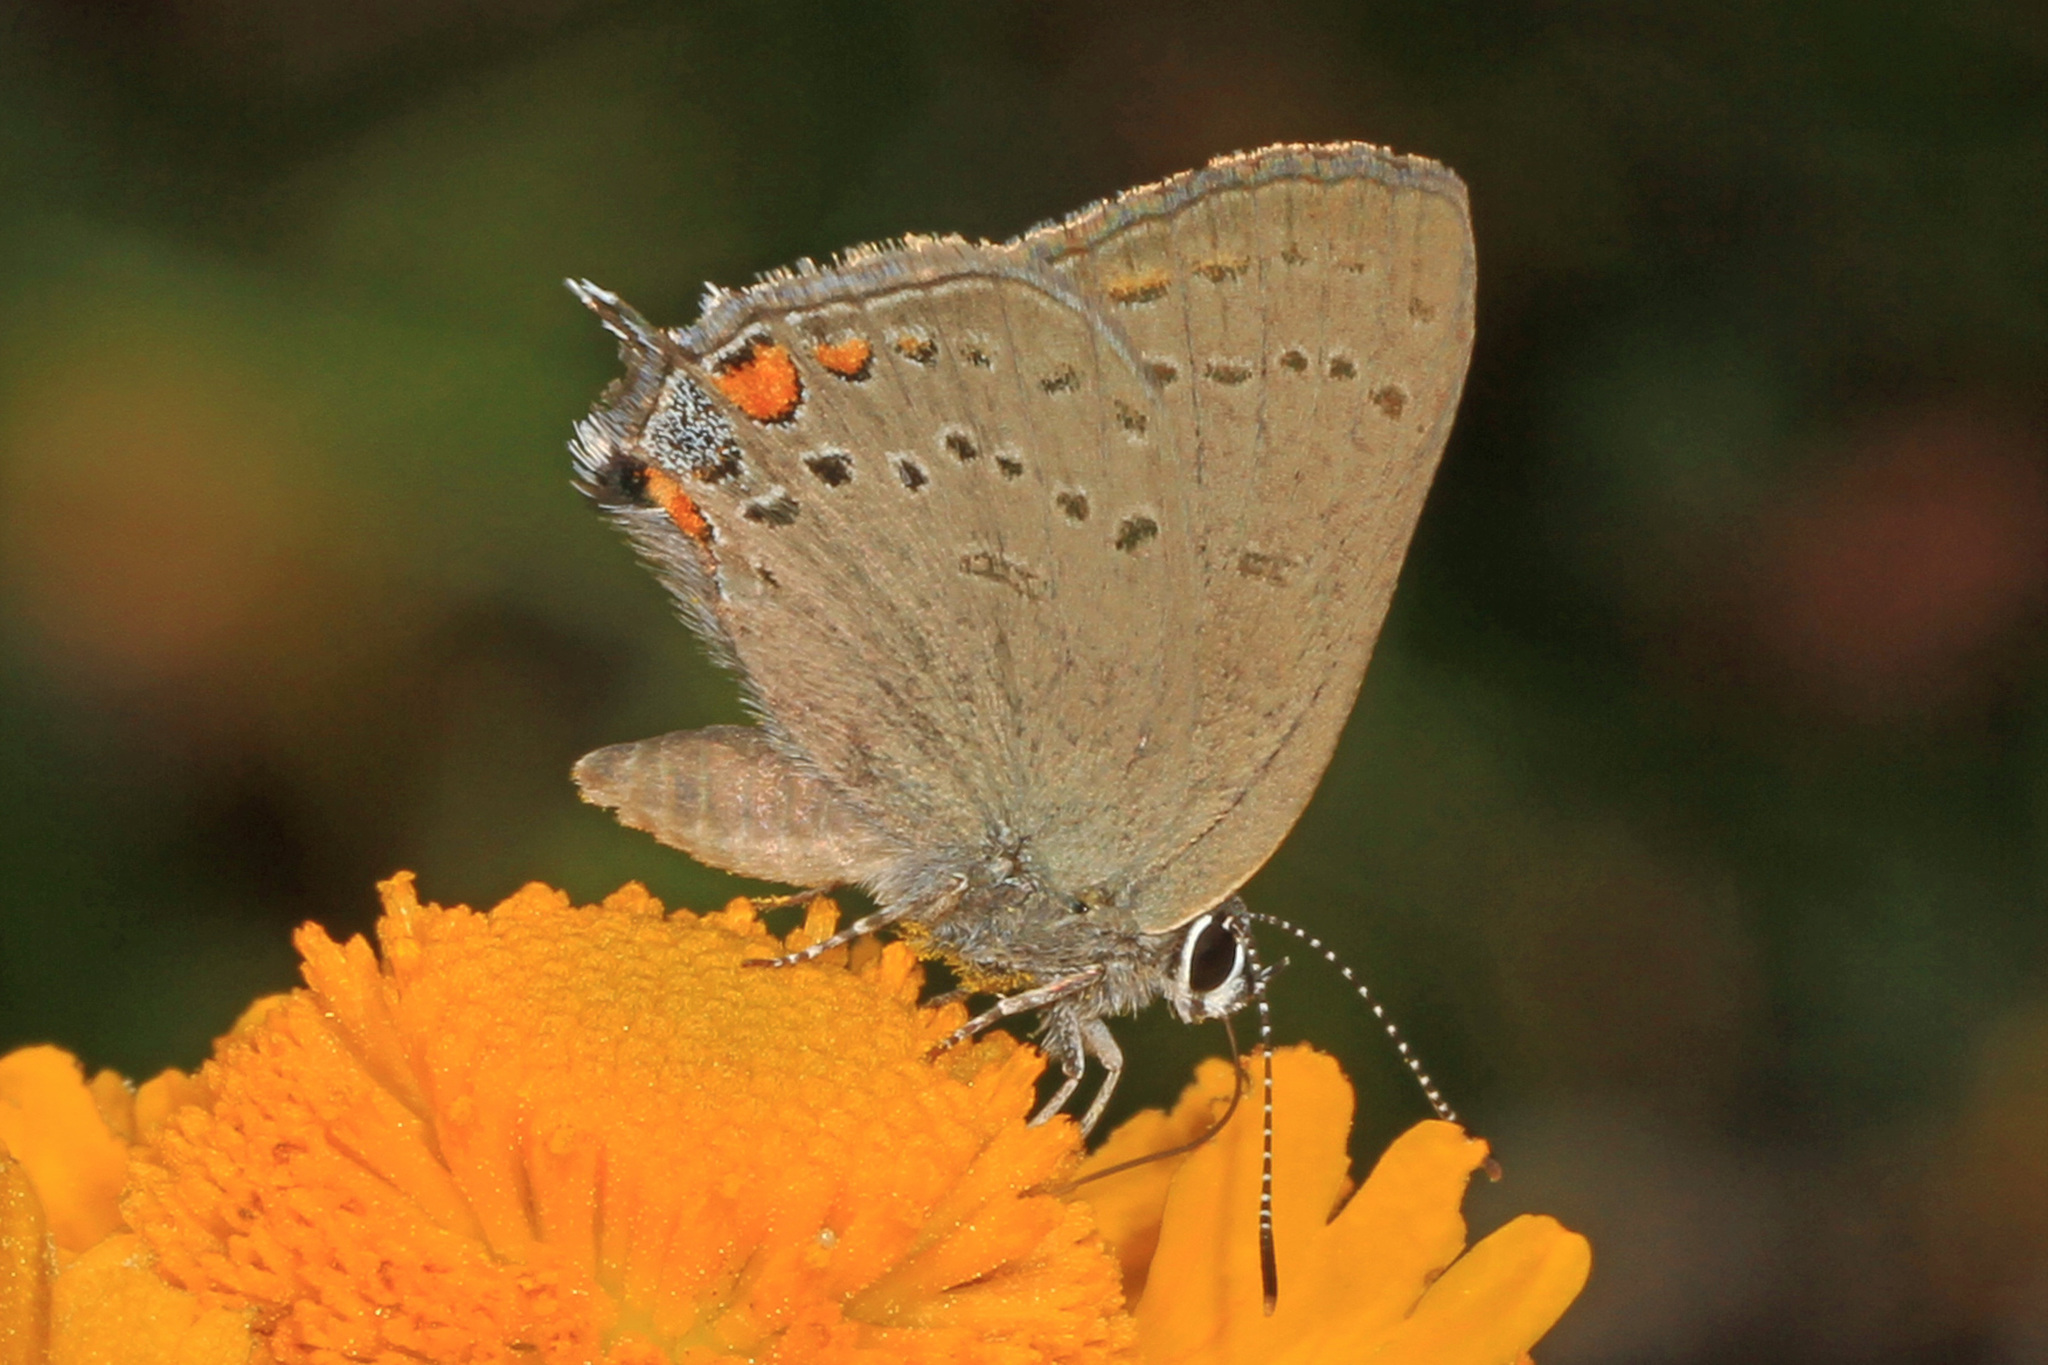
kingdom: Animalia
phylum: Arthropoda
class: Insecta
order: Lepidoptera
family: Lycaenidae
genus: Strymon
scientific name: Strymon acadica
